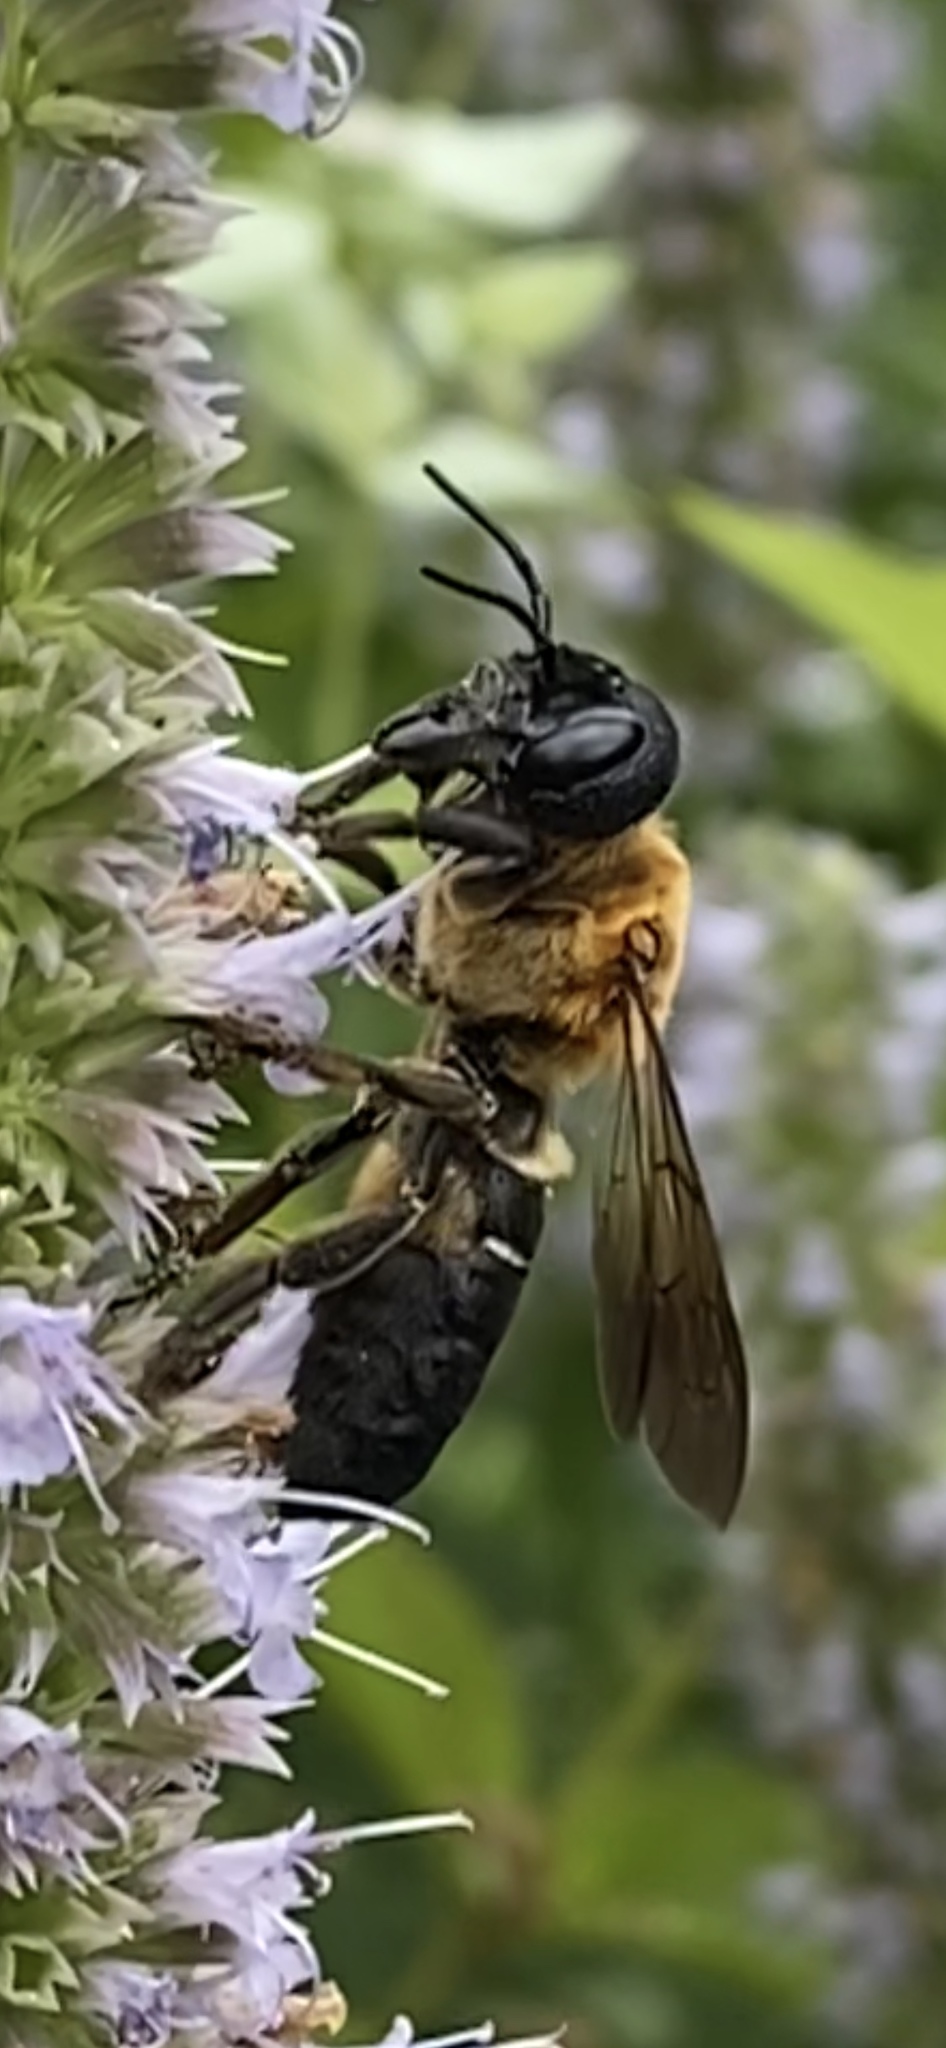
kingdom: Animalia
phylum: Arthropoda
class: Insecta
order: Hymenoptera
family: Megachilidae
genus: Megachile
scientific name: Megachile sculpturalis
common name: Sculptured resin bee
